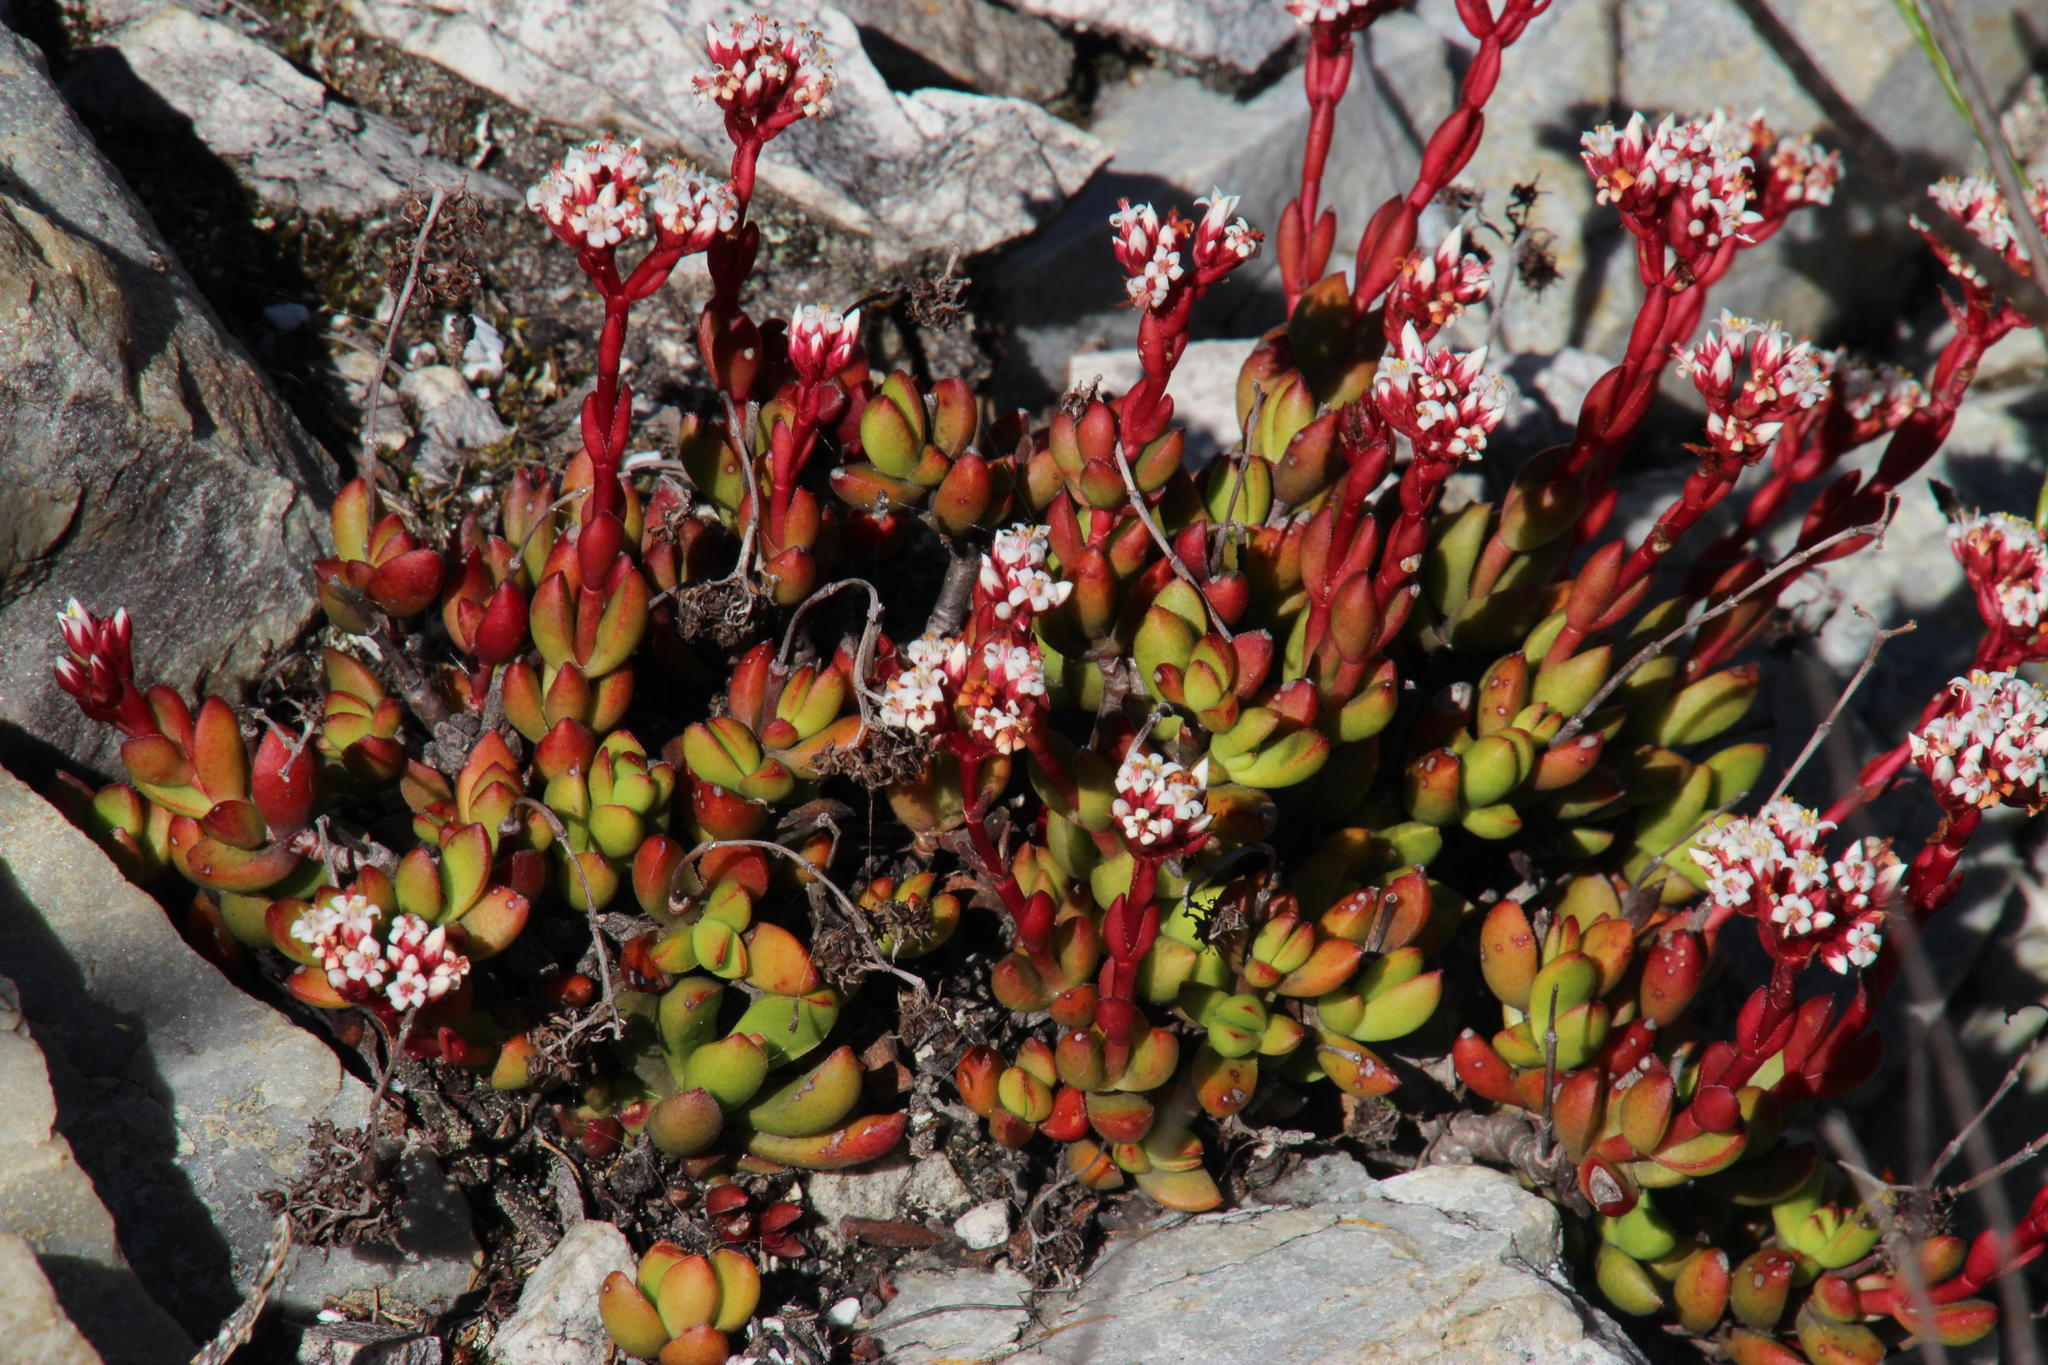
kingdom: Plantae
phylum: Tracheophyta
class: Magnoliopsida
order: Saxifragales
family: Crassulaceae
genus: Crassula
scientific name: Crassula rubricaulis
